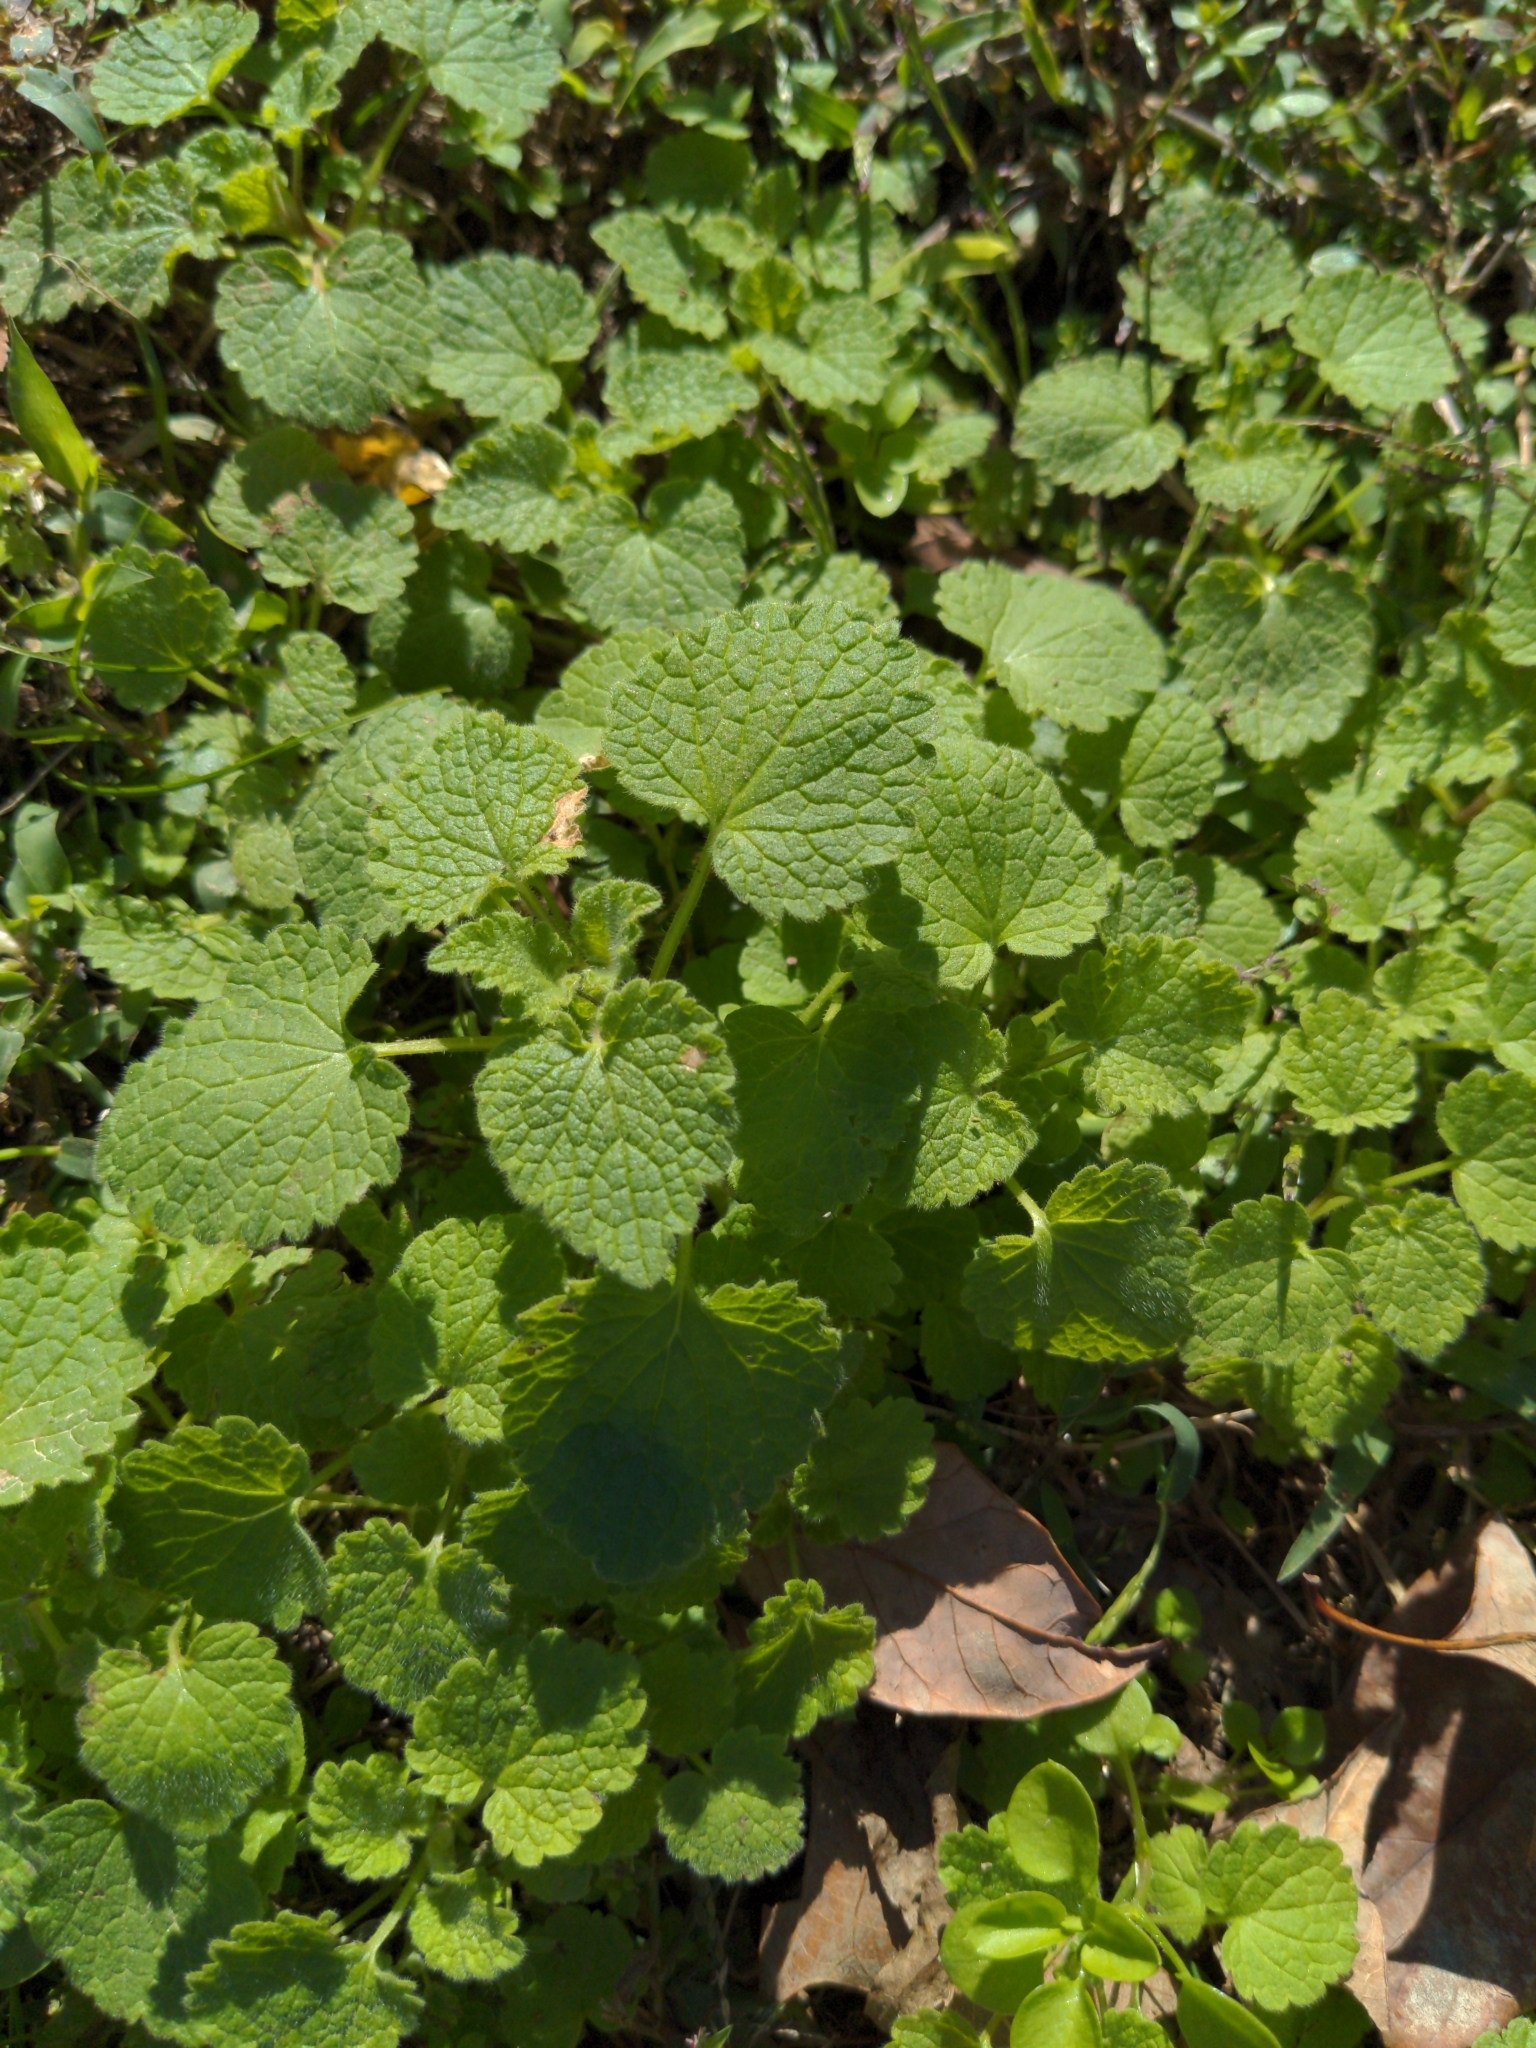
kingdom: Plantae
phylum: Tracheophyta
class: Magnoliopsida
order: Lamiales
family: Lamiaceae
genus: Lamium
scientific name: Lamium purpureum
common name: Red dead-nettle
